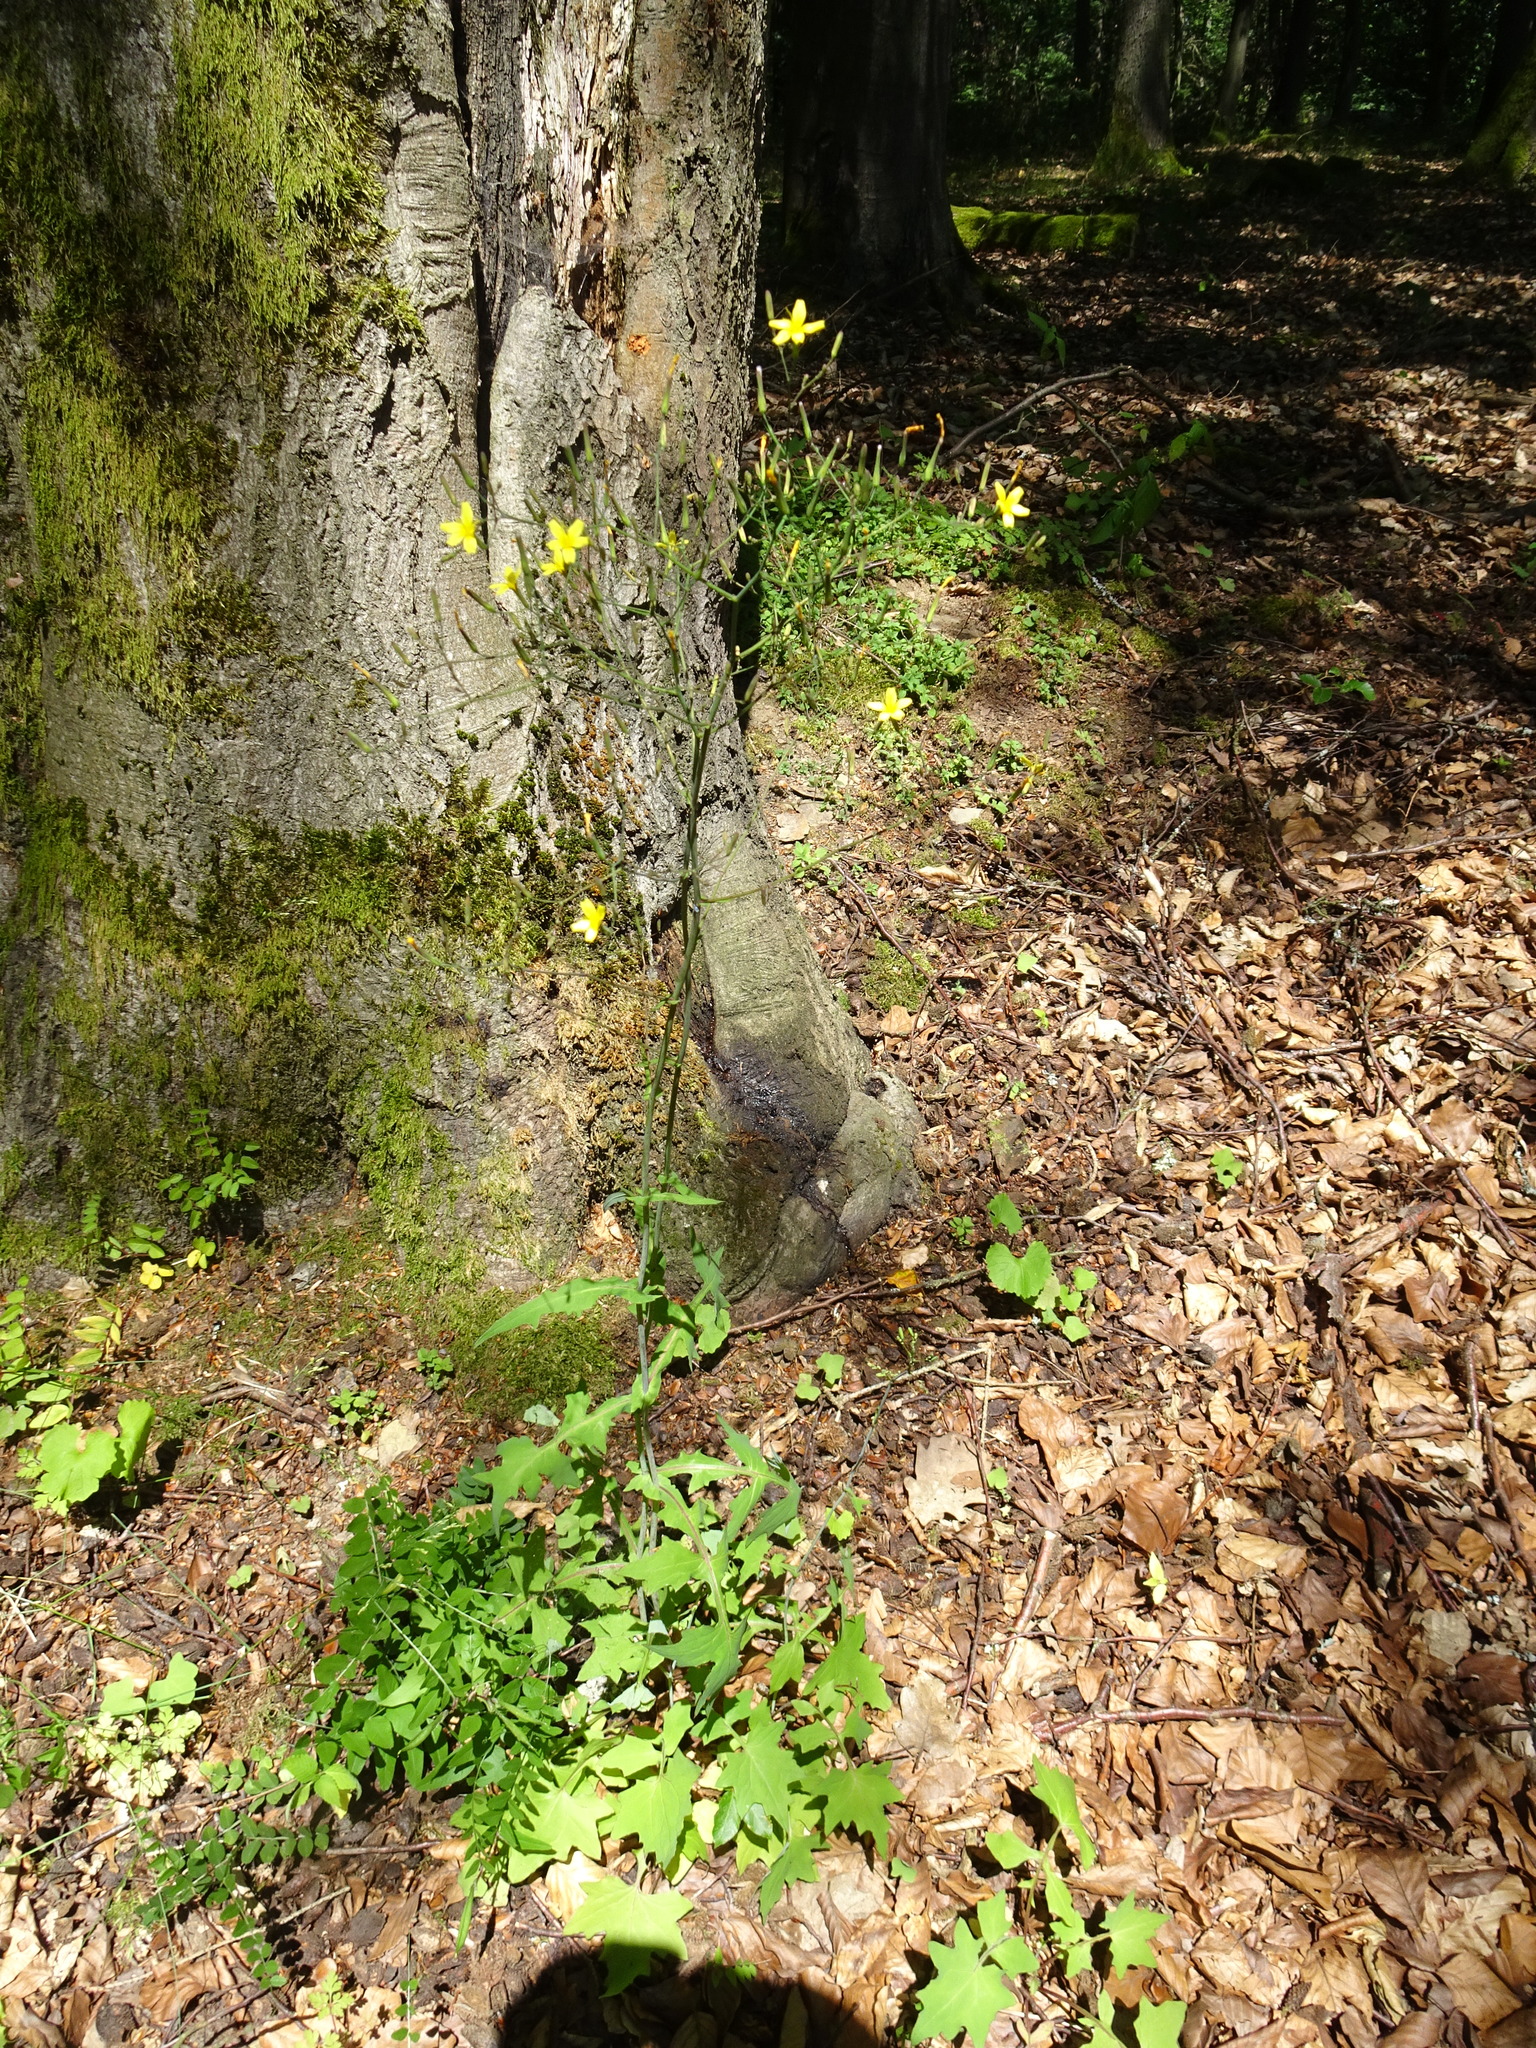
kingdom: Plantae
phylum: Tracheophyta
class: Magnoliopsida
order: Asterales
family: Asteraceae
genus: Mycelis
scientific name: Mycelis muralis
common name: Wall lettuce
